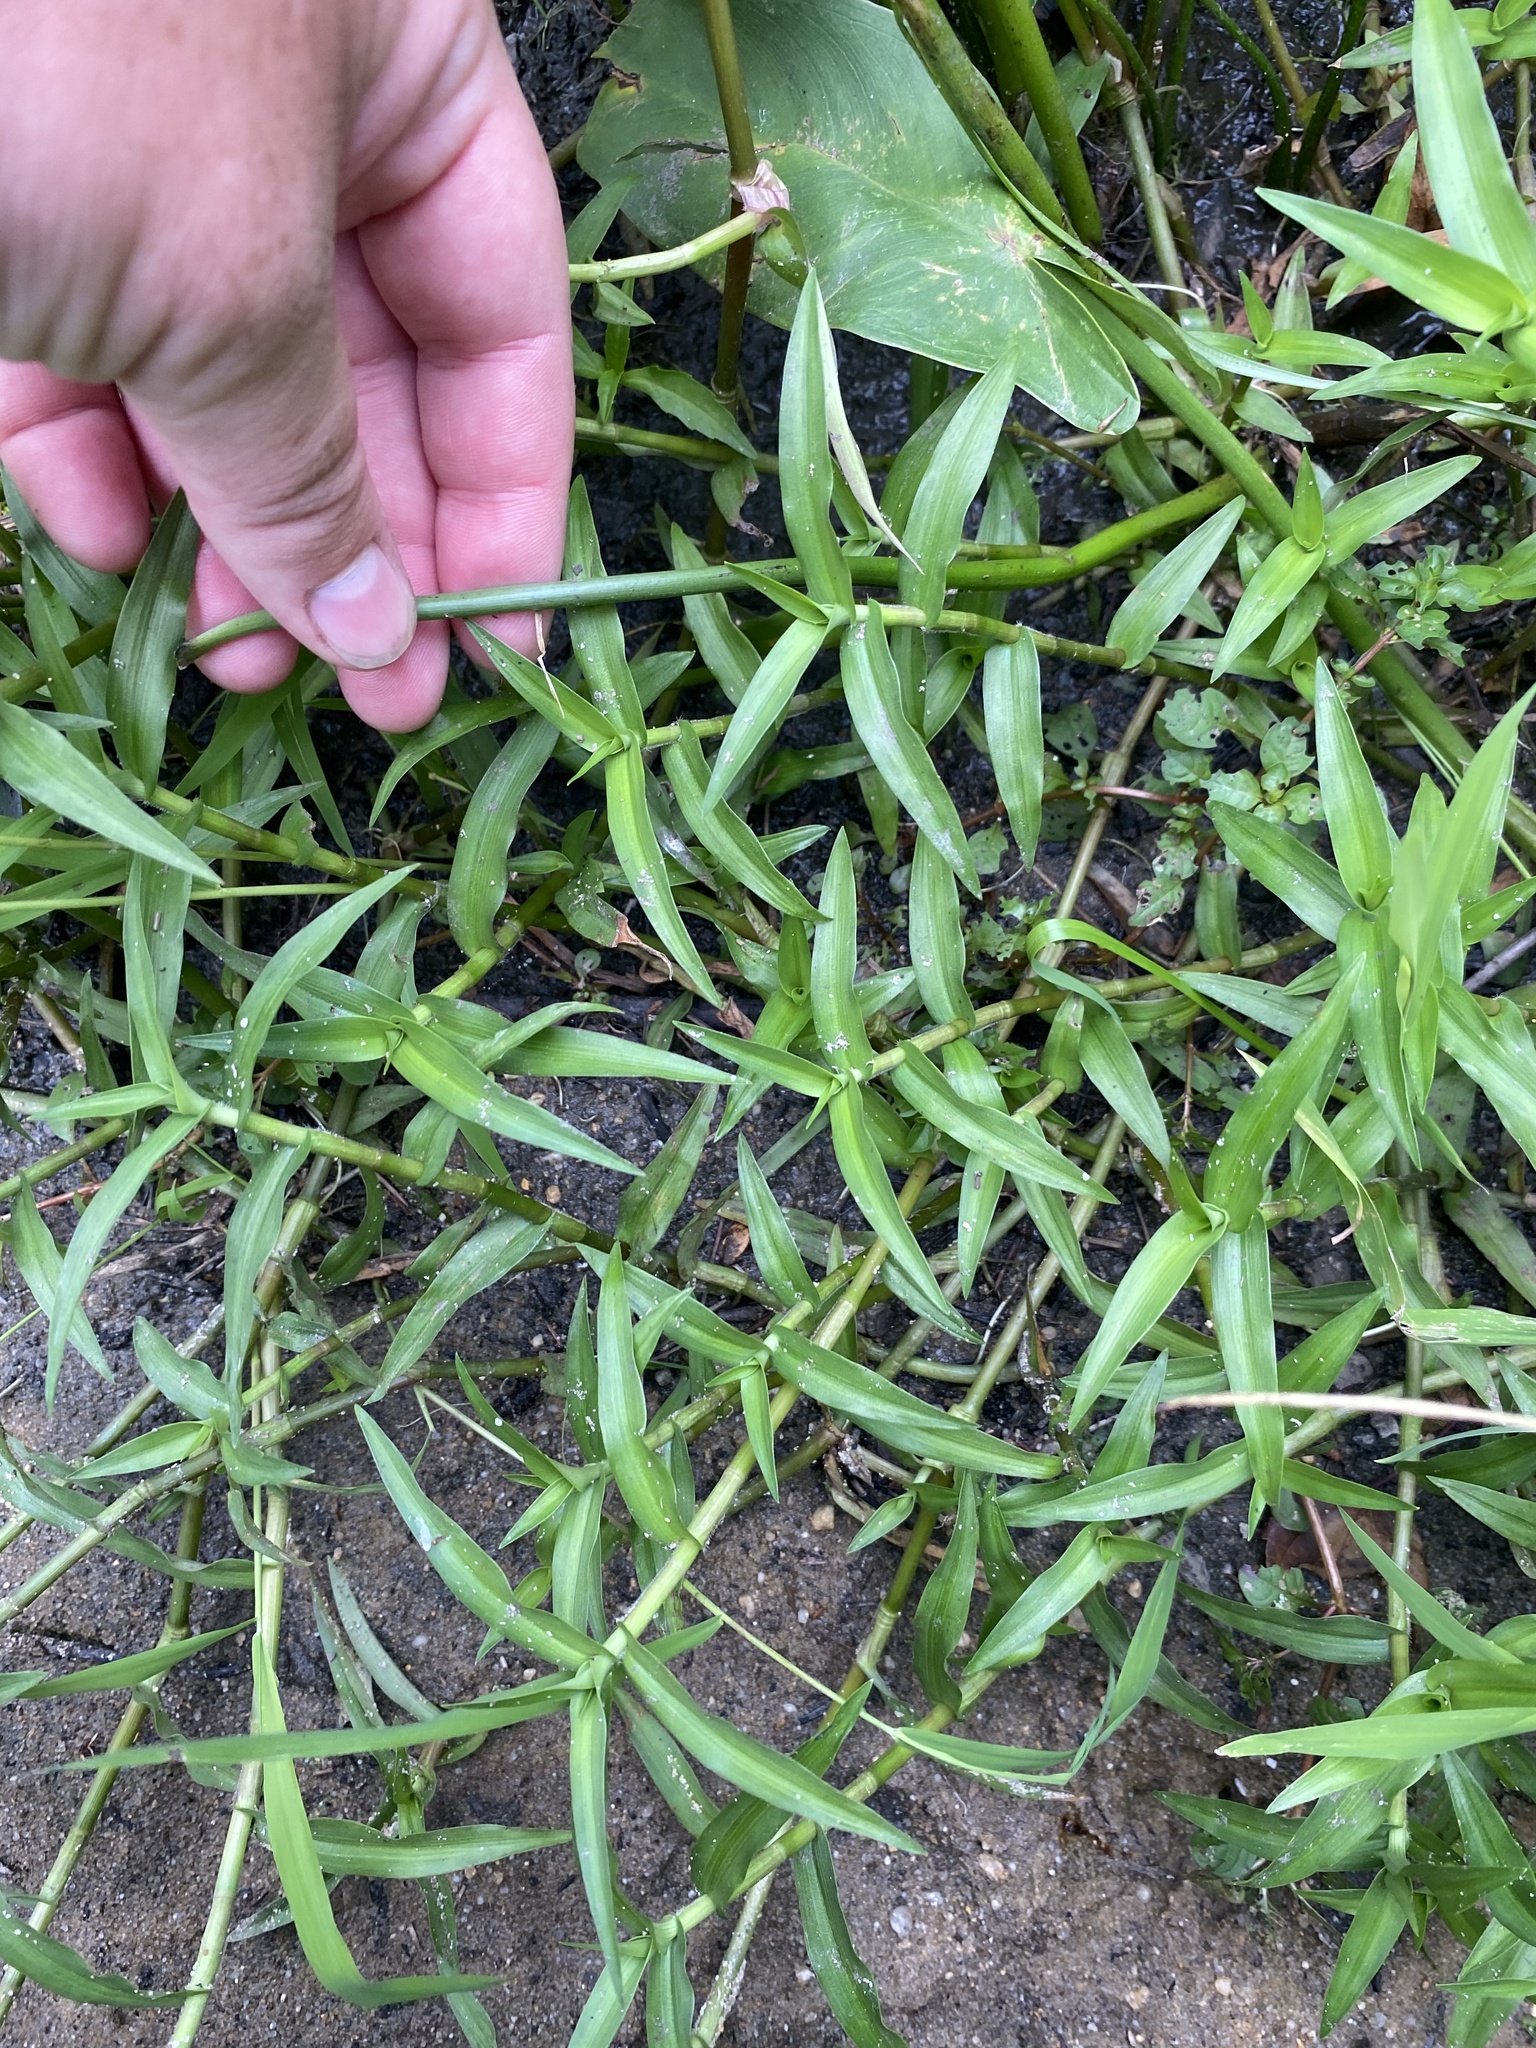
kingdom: Plantae
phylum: Tracheophyta
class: Liliopsida
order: Commelinales
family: Commelinaceae
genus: Murdannia
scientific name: Murdannia keisak
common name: Wartremoving herb
